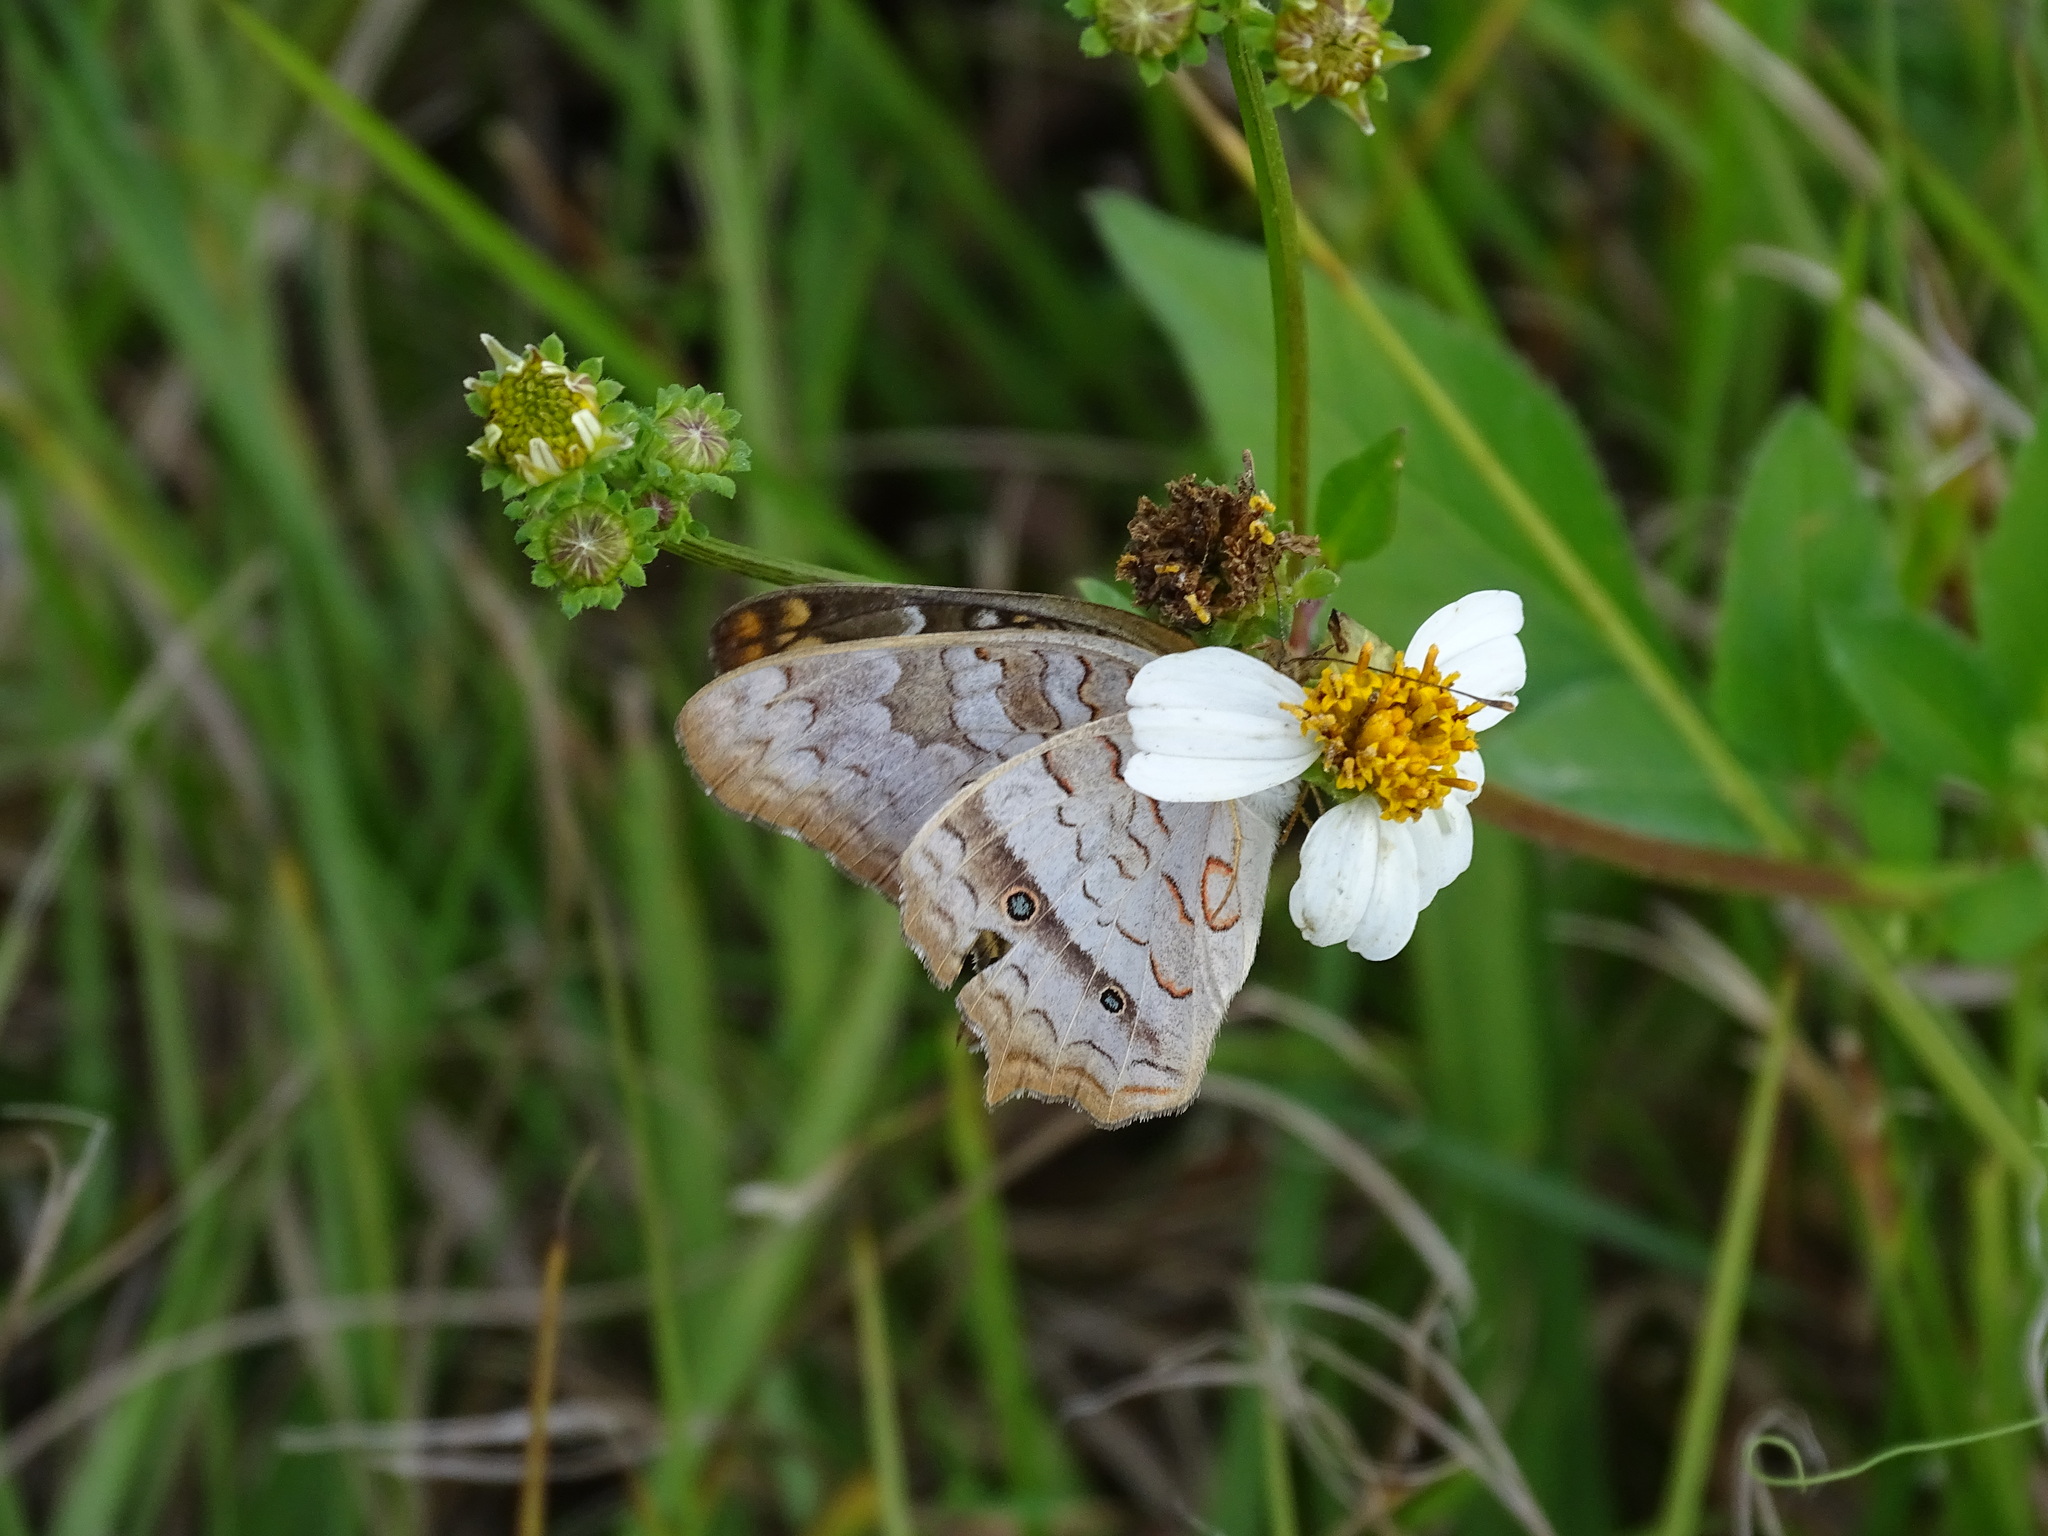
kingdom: Animalia
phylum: Arthropoda
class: Insecta
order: Lepidoptera
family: Nymphalidae
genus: Anartia
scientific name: Anartia jatrophae
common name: White peacock
